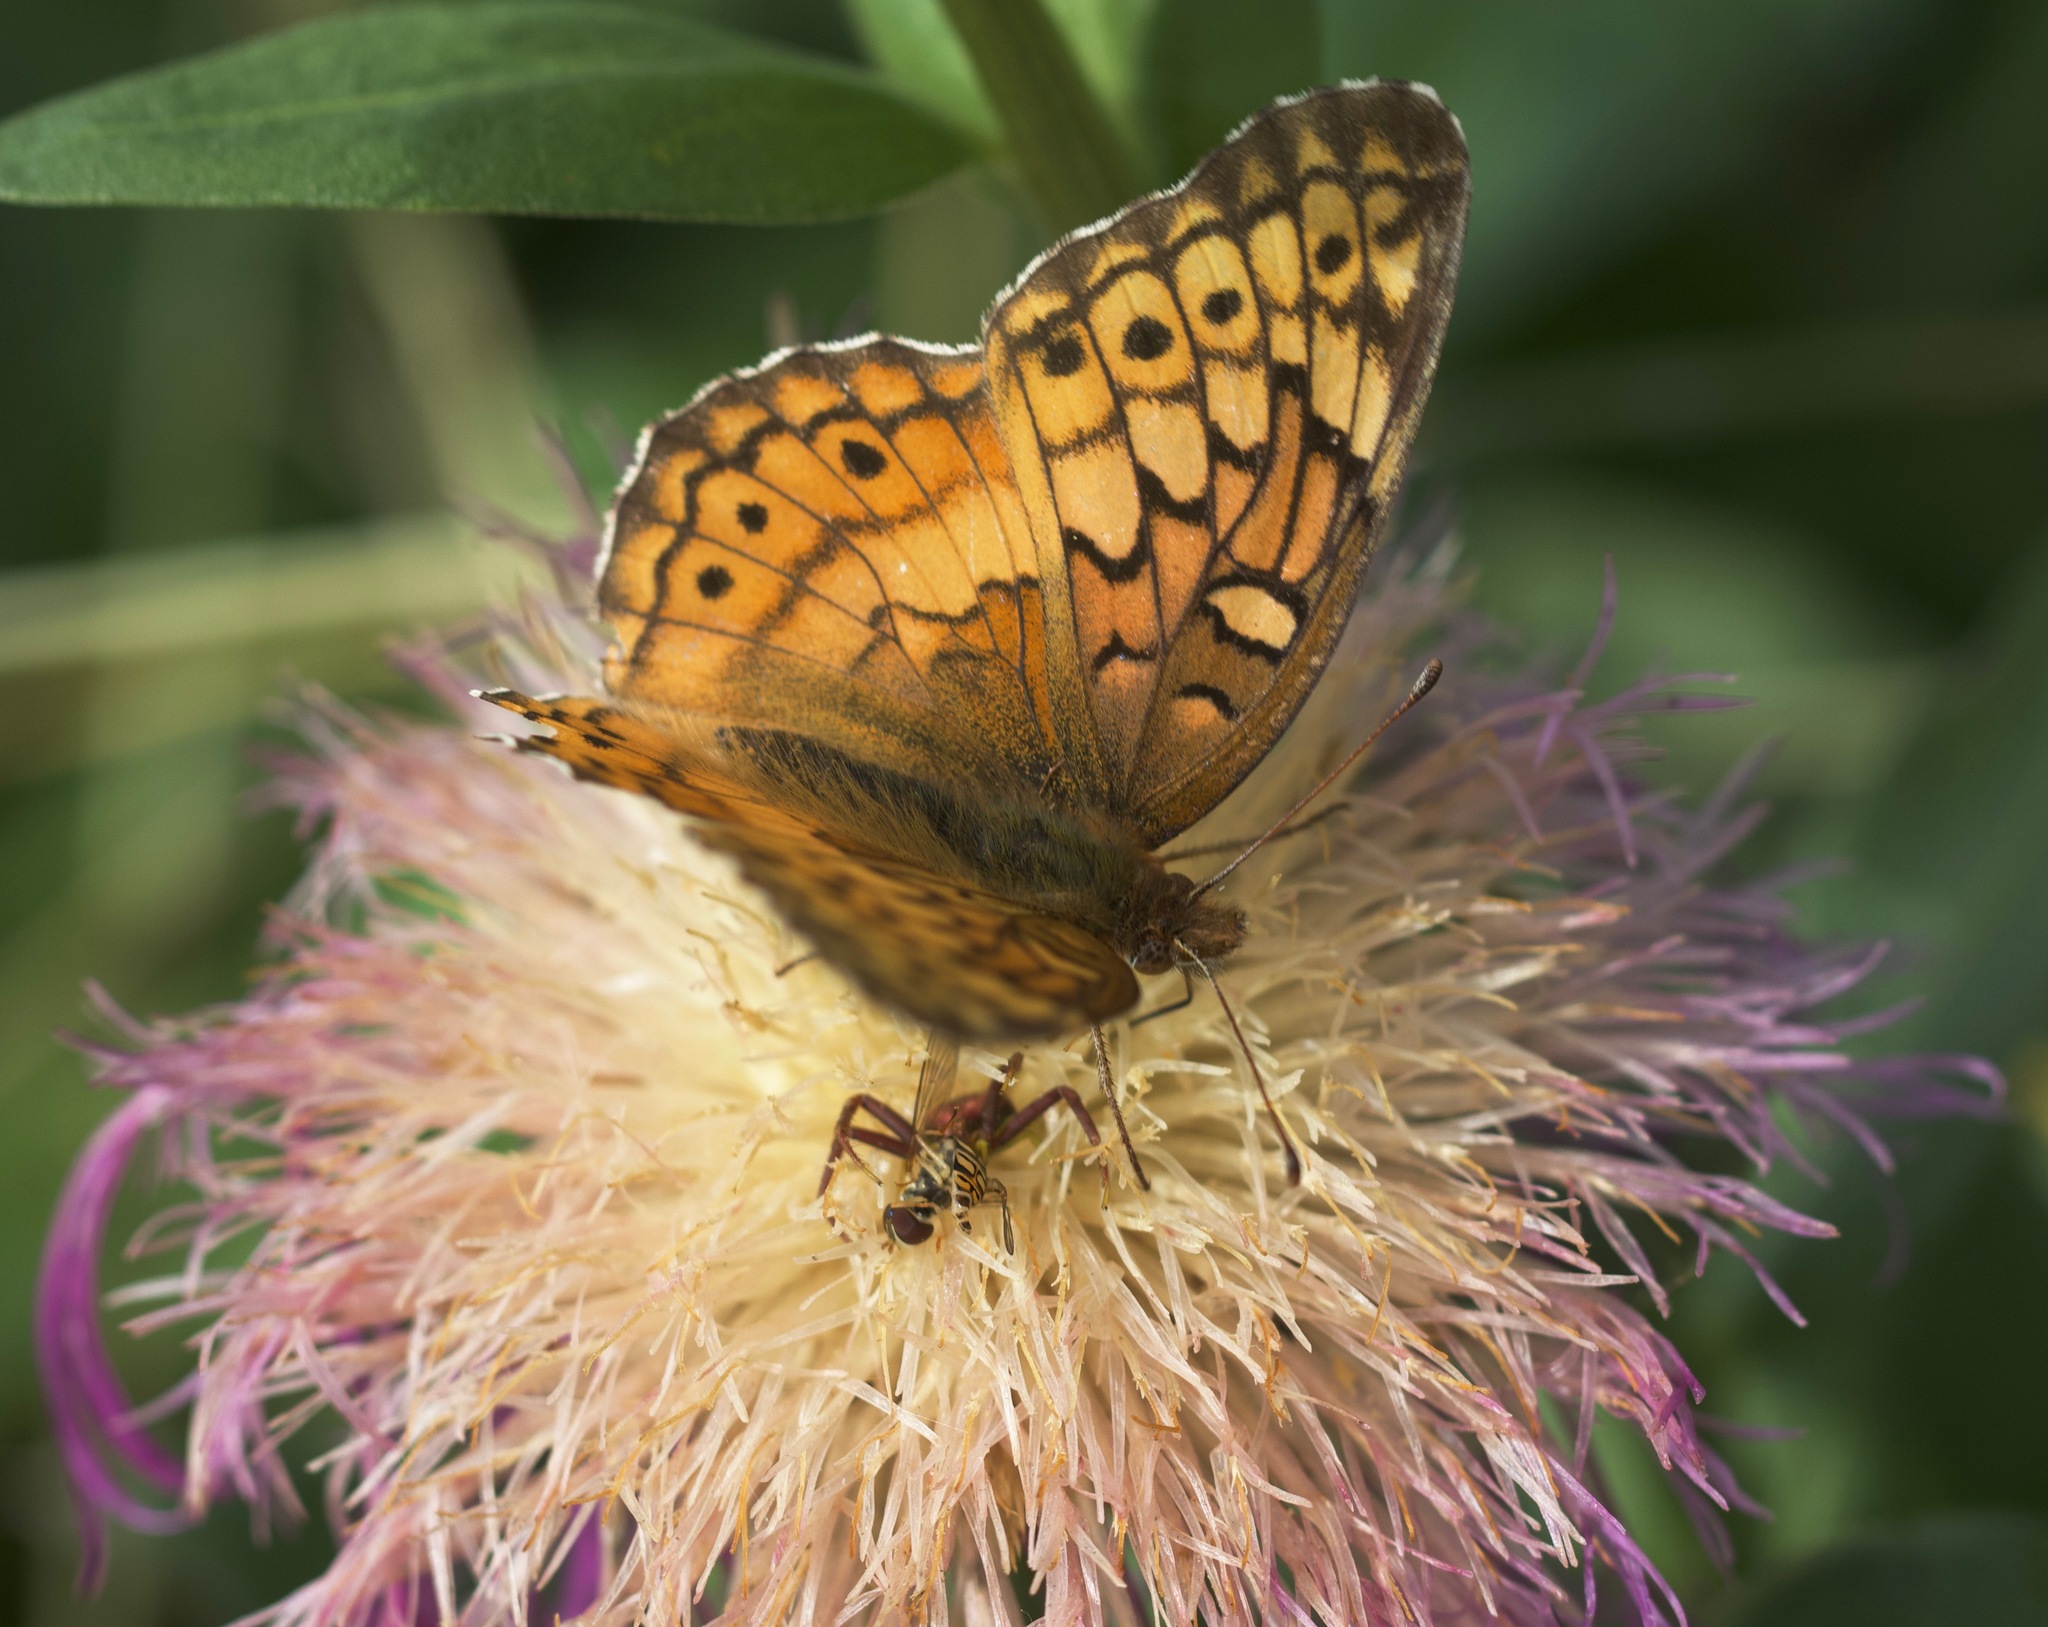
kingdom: Animalia
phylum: Arthropoda
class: Insecta
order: Lepidoptera
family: Nymphalidae
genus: Euptoieta
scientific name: Euptoieta claudia
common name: Variegated fritillary
